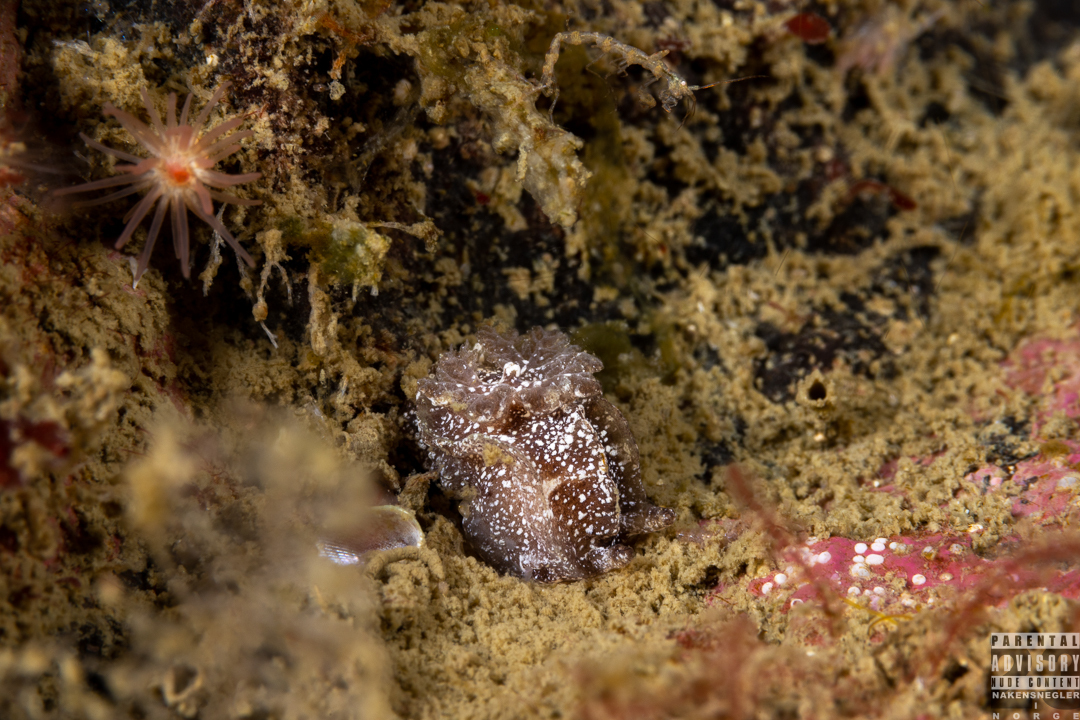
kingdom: Animalia
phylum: Mollusca
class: Gastropoda
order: Nudibranchia
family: Goniodorididae
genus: Pelagella
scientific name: Pelagella castanea
